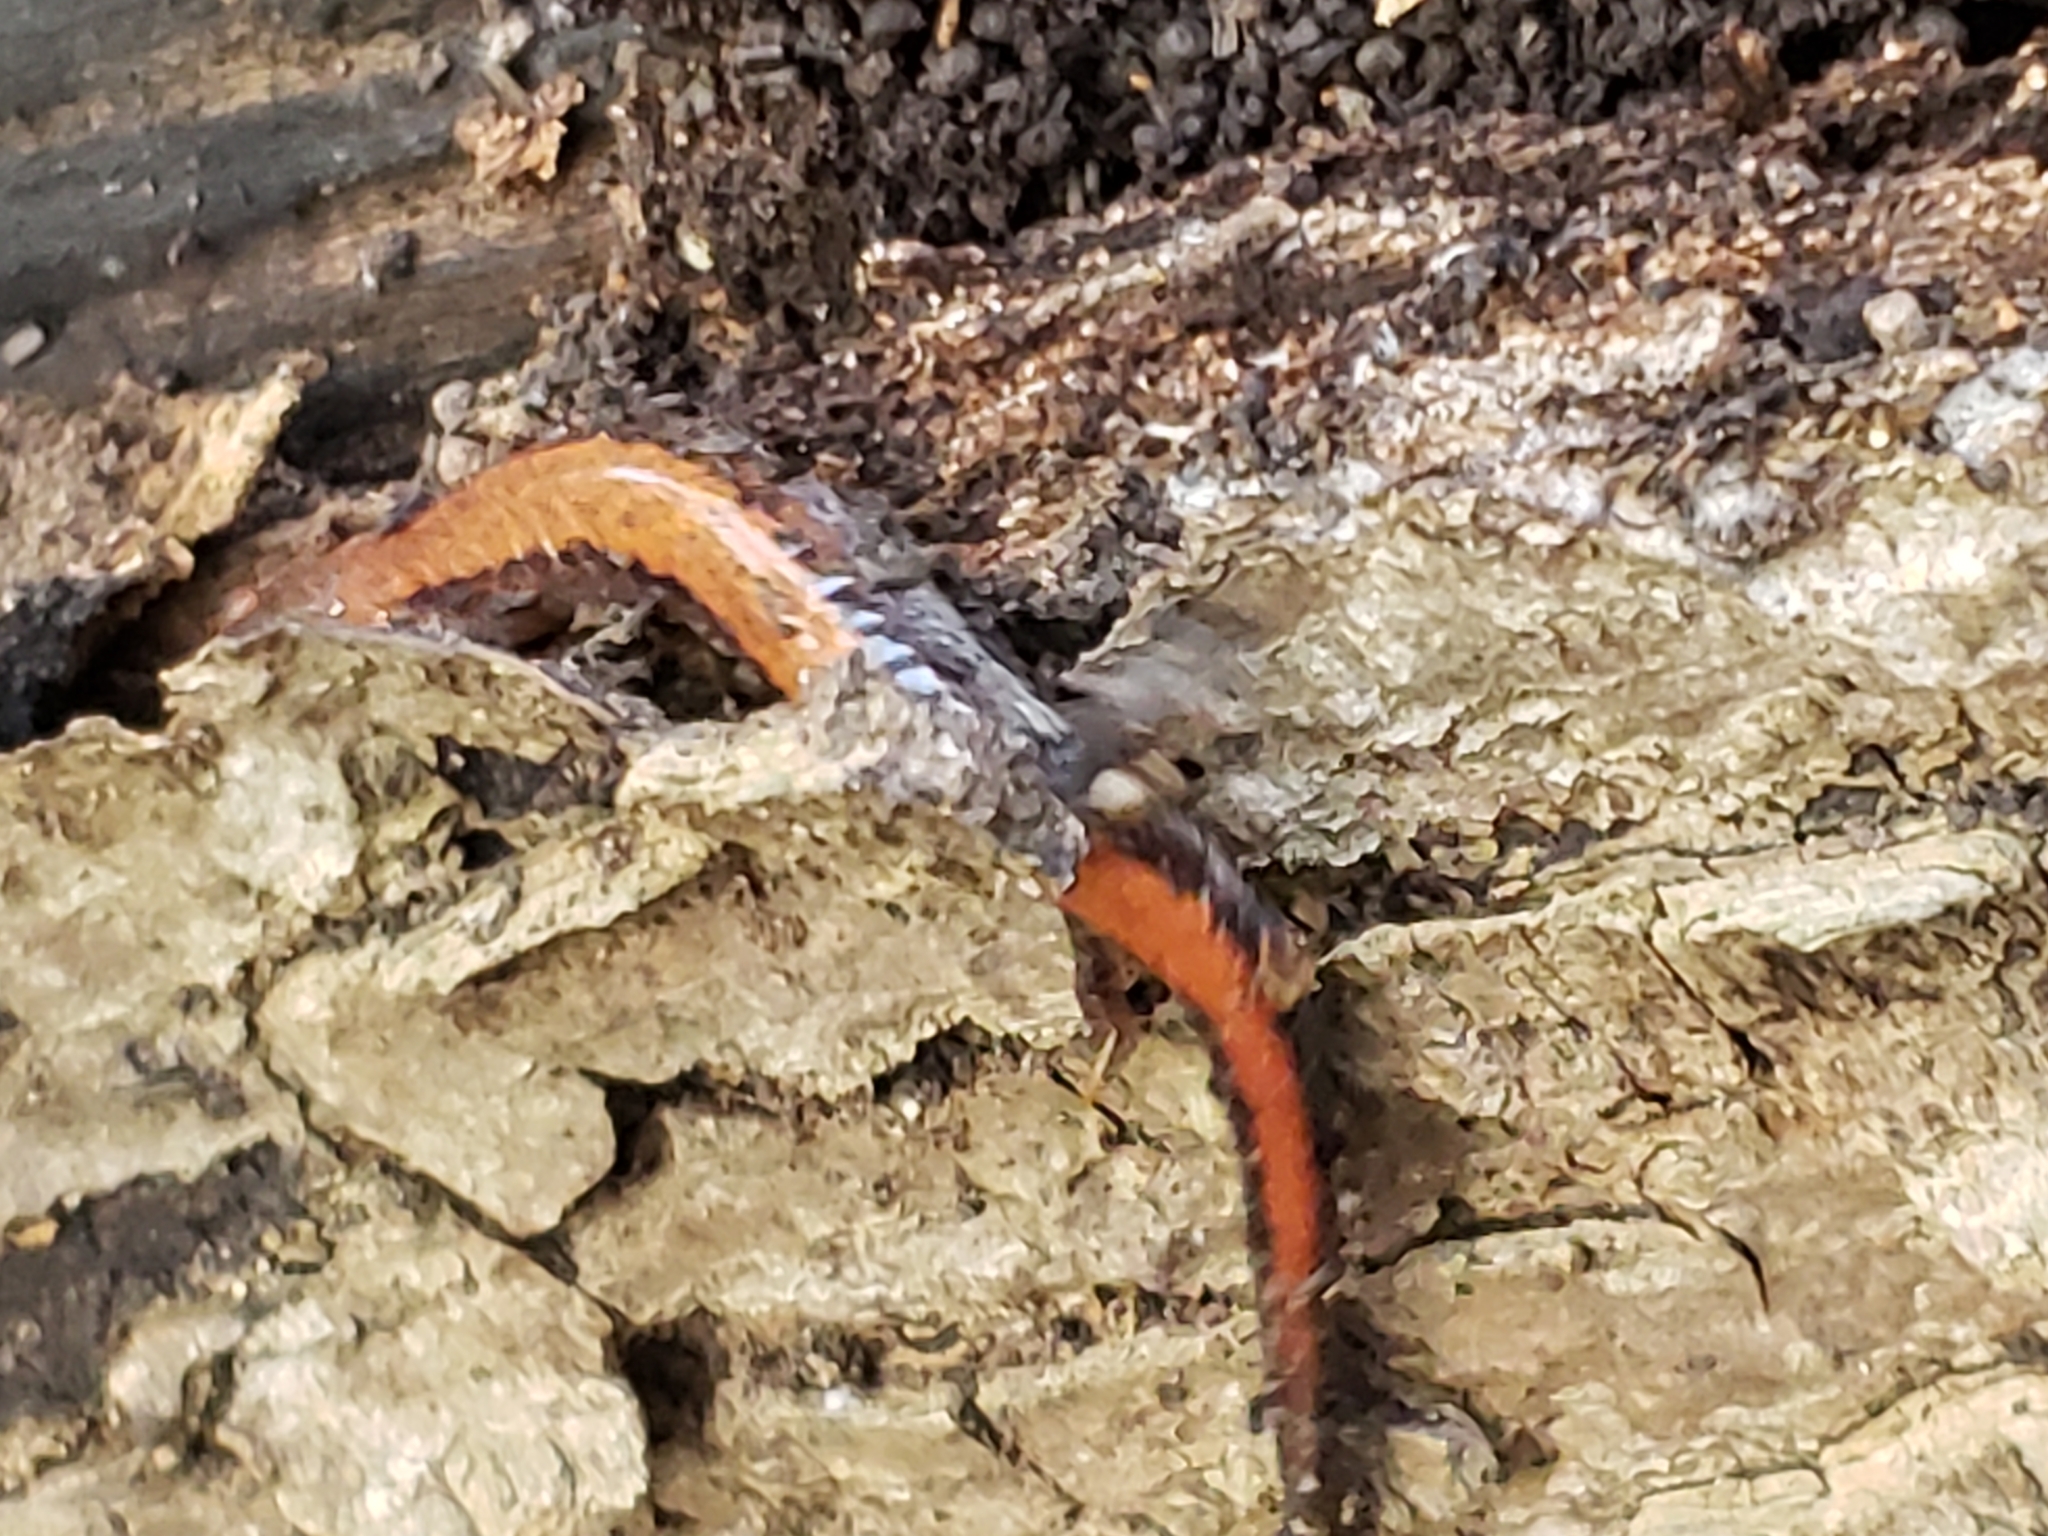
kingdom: Animalia
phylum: Chordata
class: Amphibia
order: Caudata
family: Plethodontidae
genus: Plethodon
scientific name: Plethodon cinereus
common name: Redback salamander
